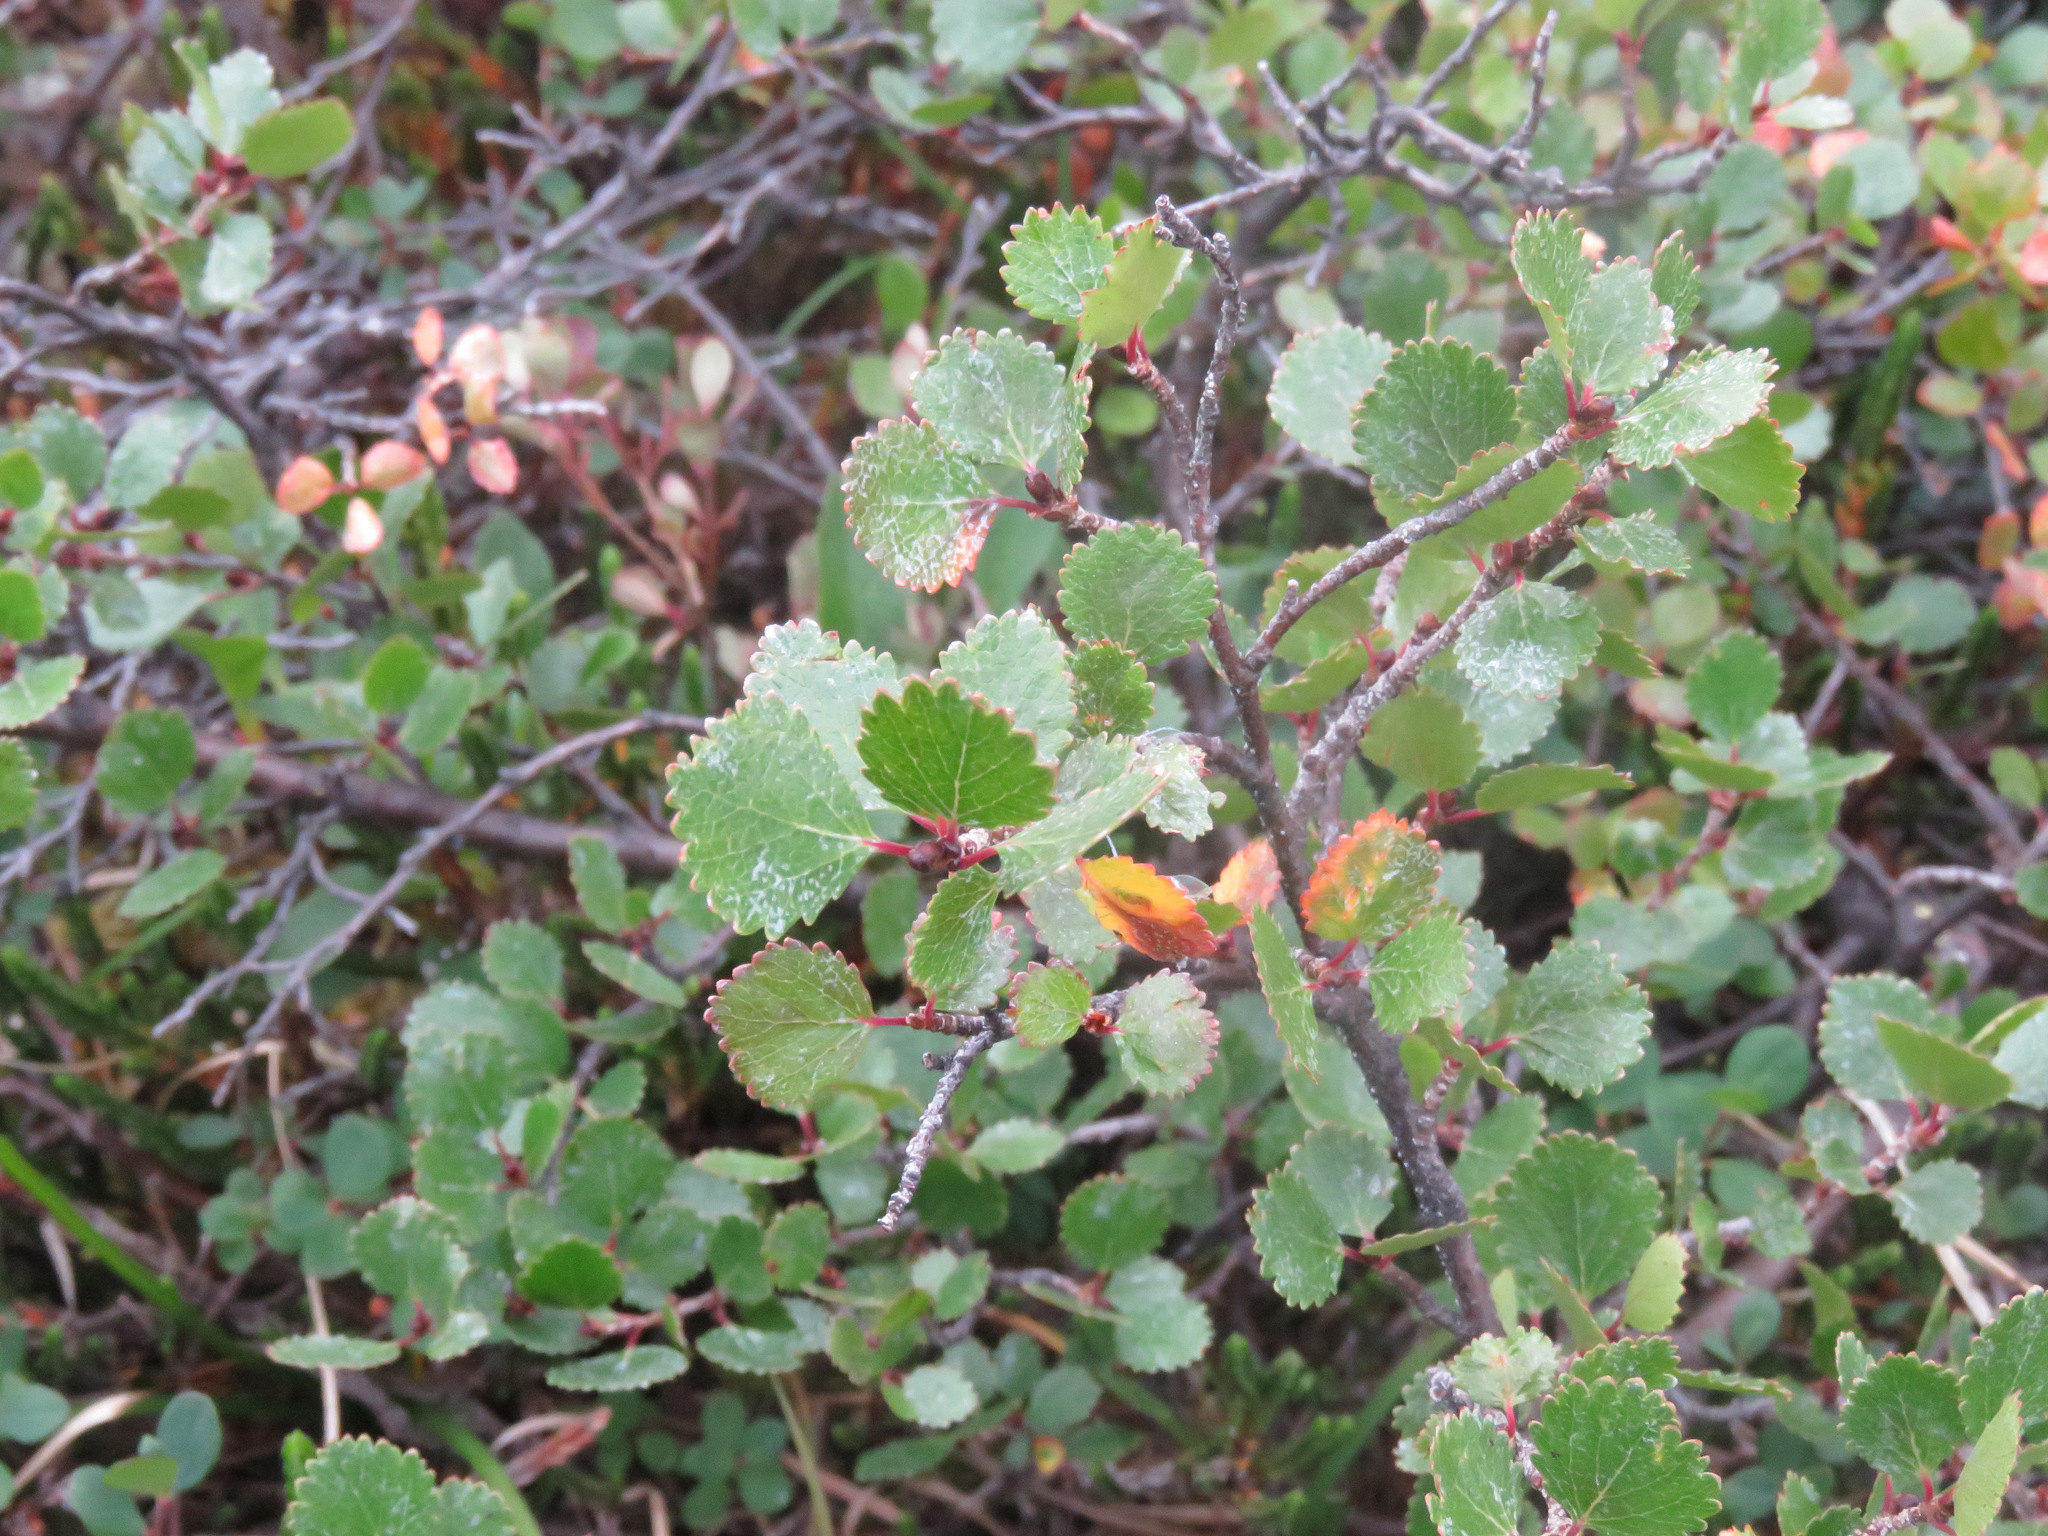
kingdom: Plantae
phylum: Tracheophyta
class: Magnoliopsida
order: Fagales
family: Betulaceae
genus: Betula
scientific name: Betula glandulosa
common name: Dwarf birch
